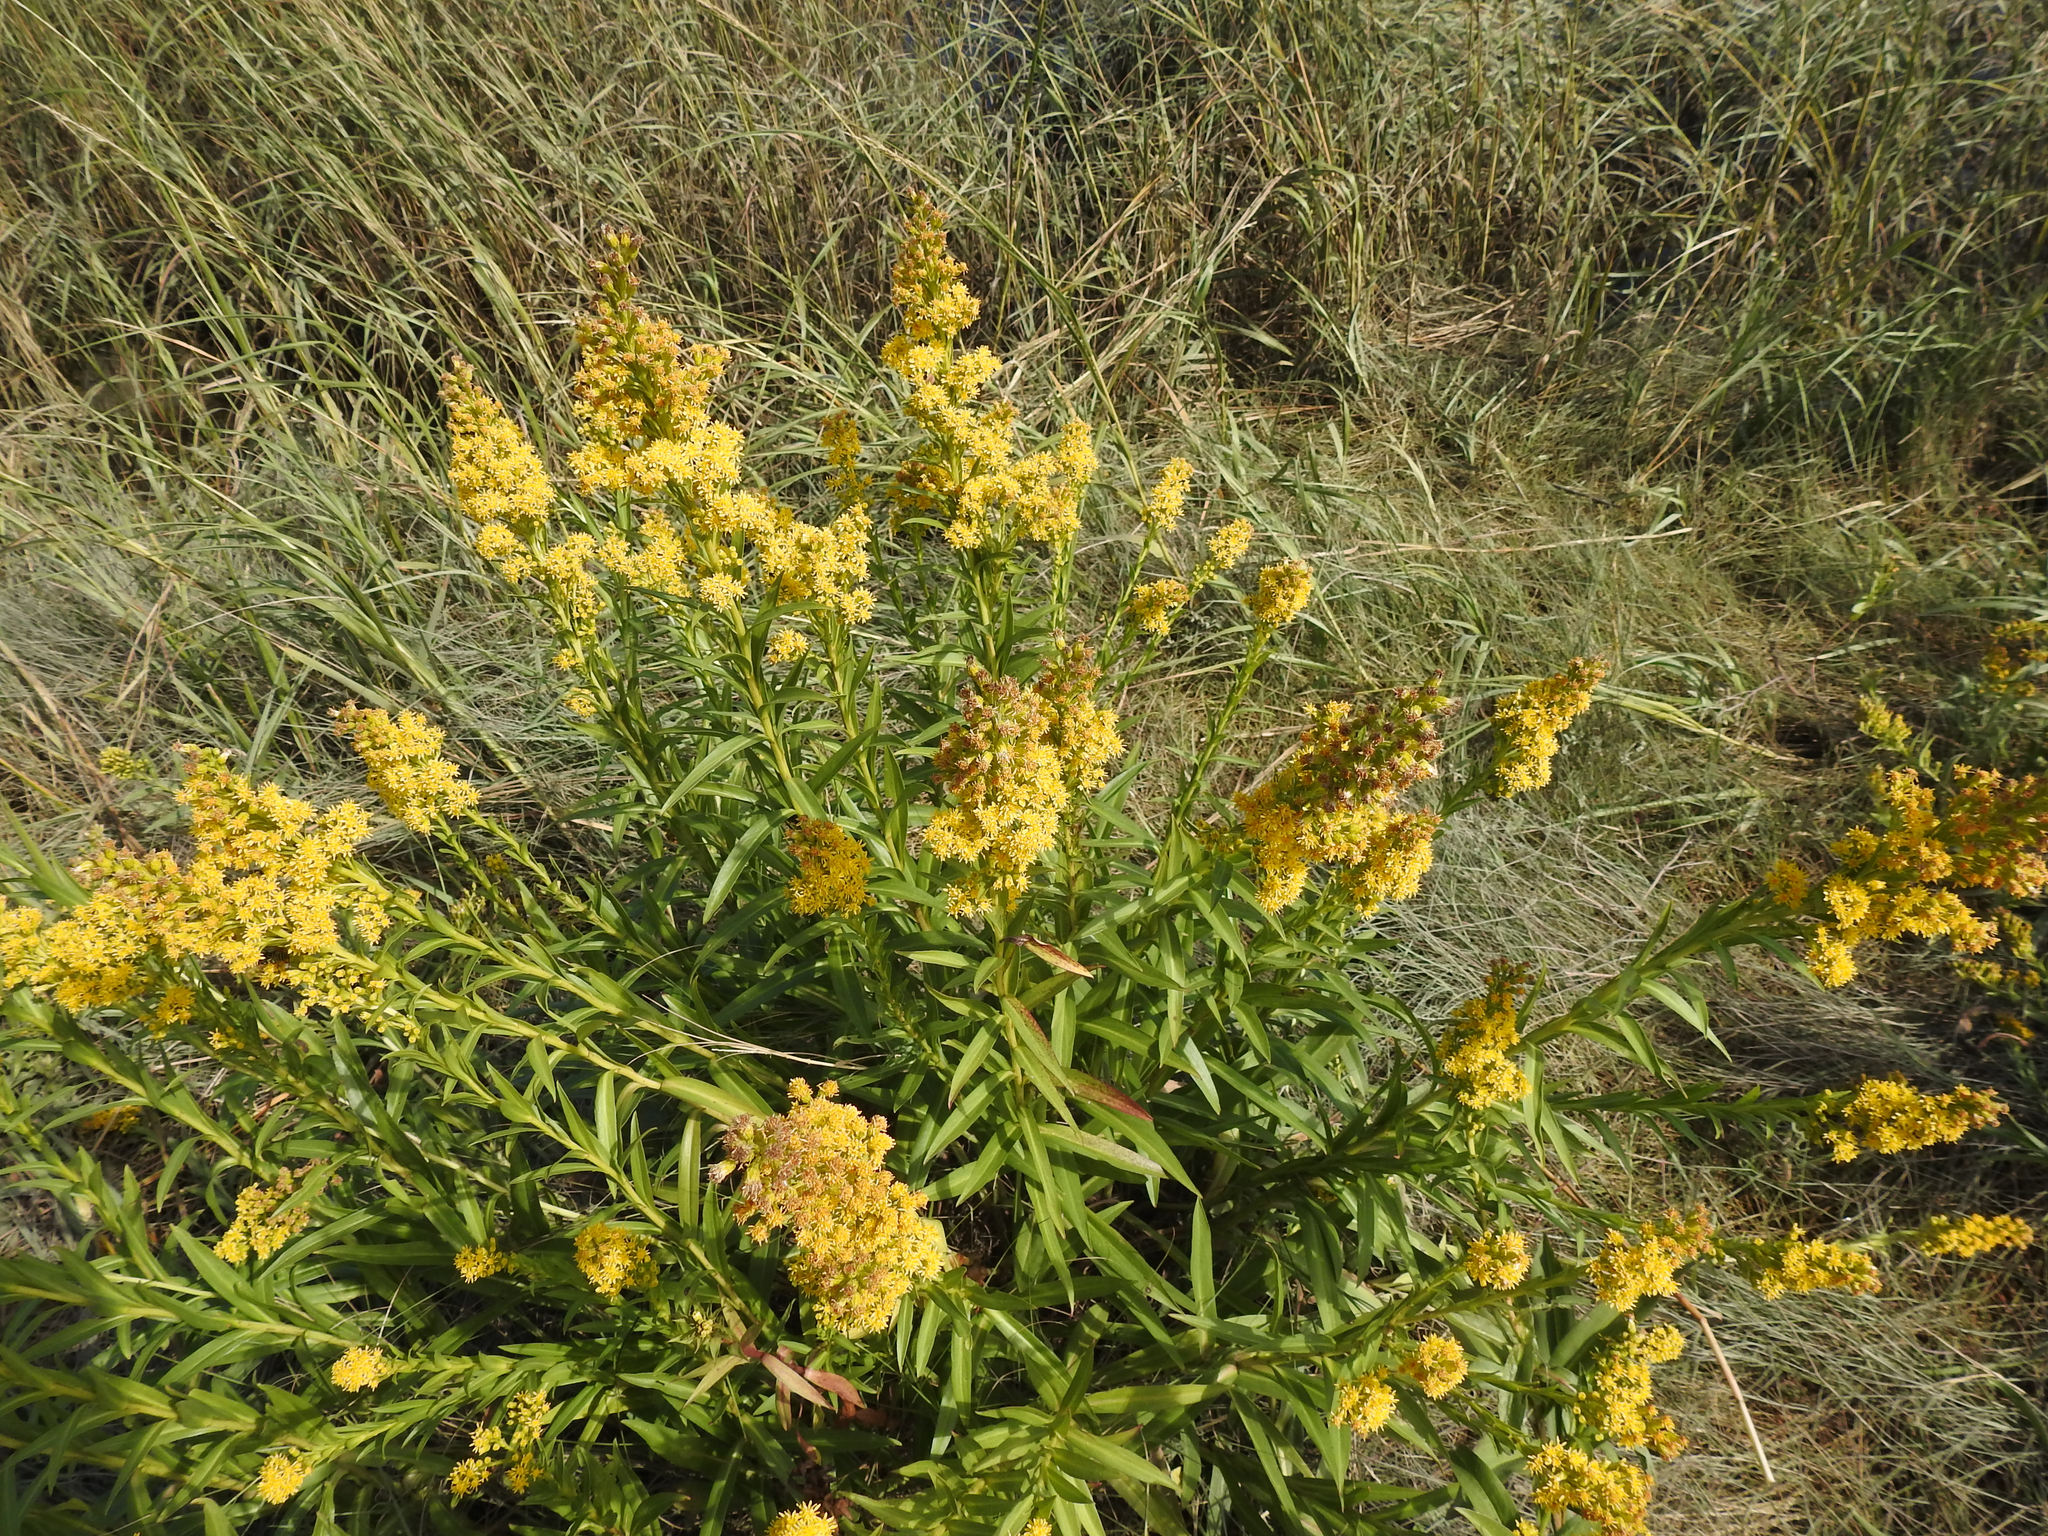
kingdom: Plantae
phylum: Tracheophyta
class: Magnoliopsida
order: Asterales
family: Asteraceae
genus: Solidago
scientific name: Solidago sempervirens
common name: Salt-marsh goldenrod
